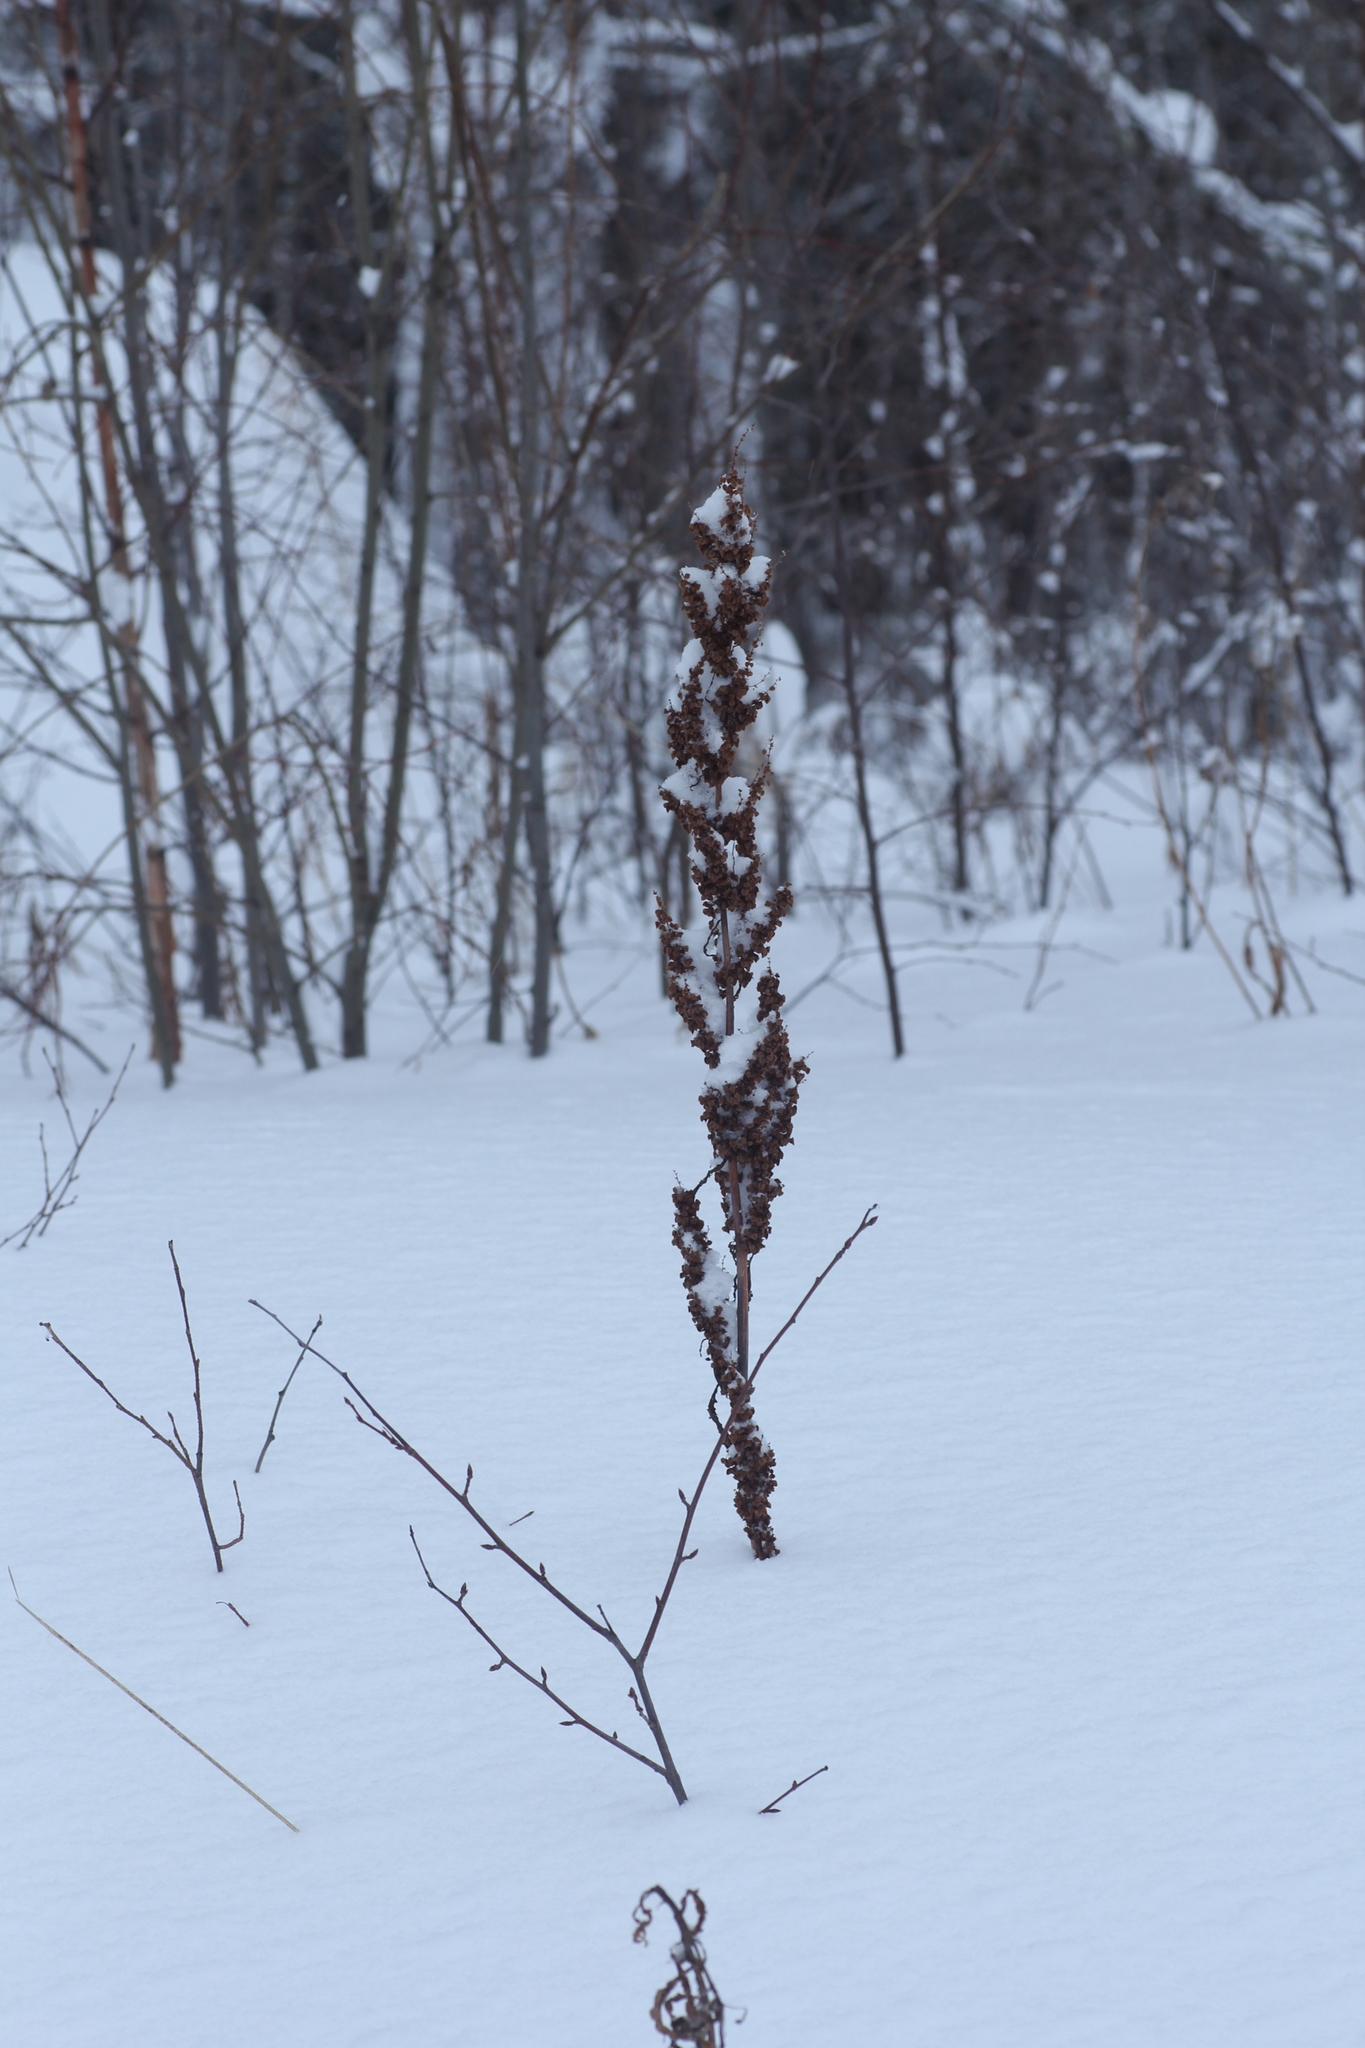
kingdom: Plantae
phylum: Tracheophyta
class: Magnoliopsida
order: Caryophyllales
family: Polygonaceae
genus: Rumex
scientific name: Rumex aquaticus
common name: Scottish dock
